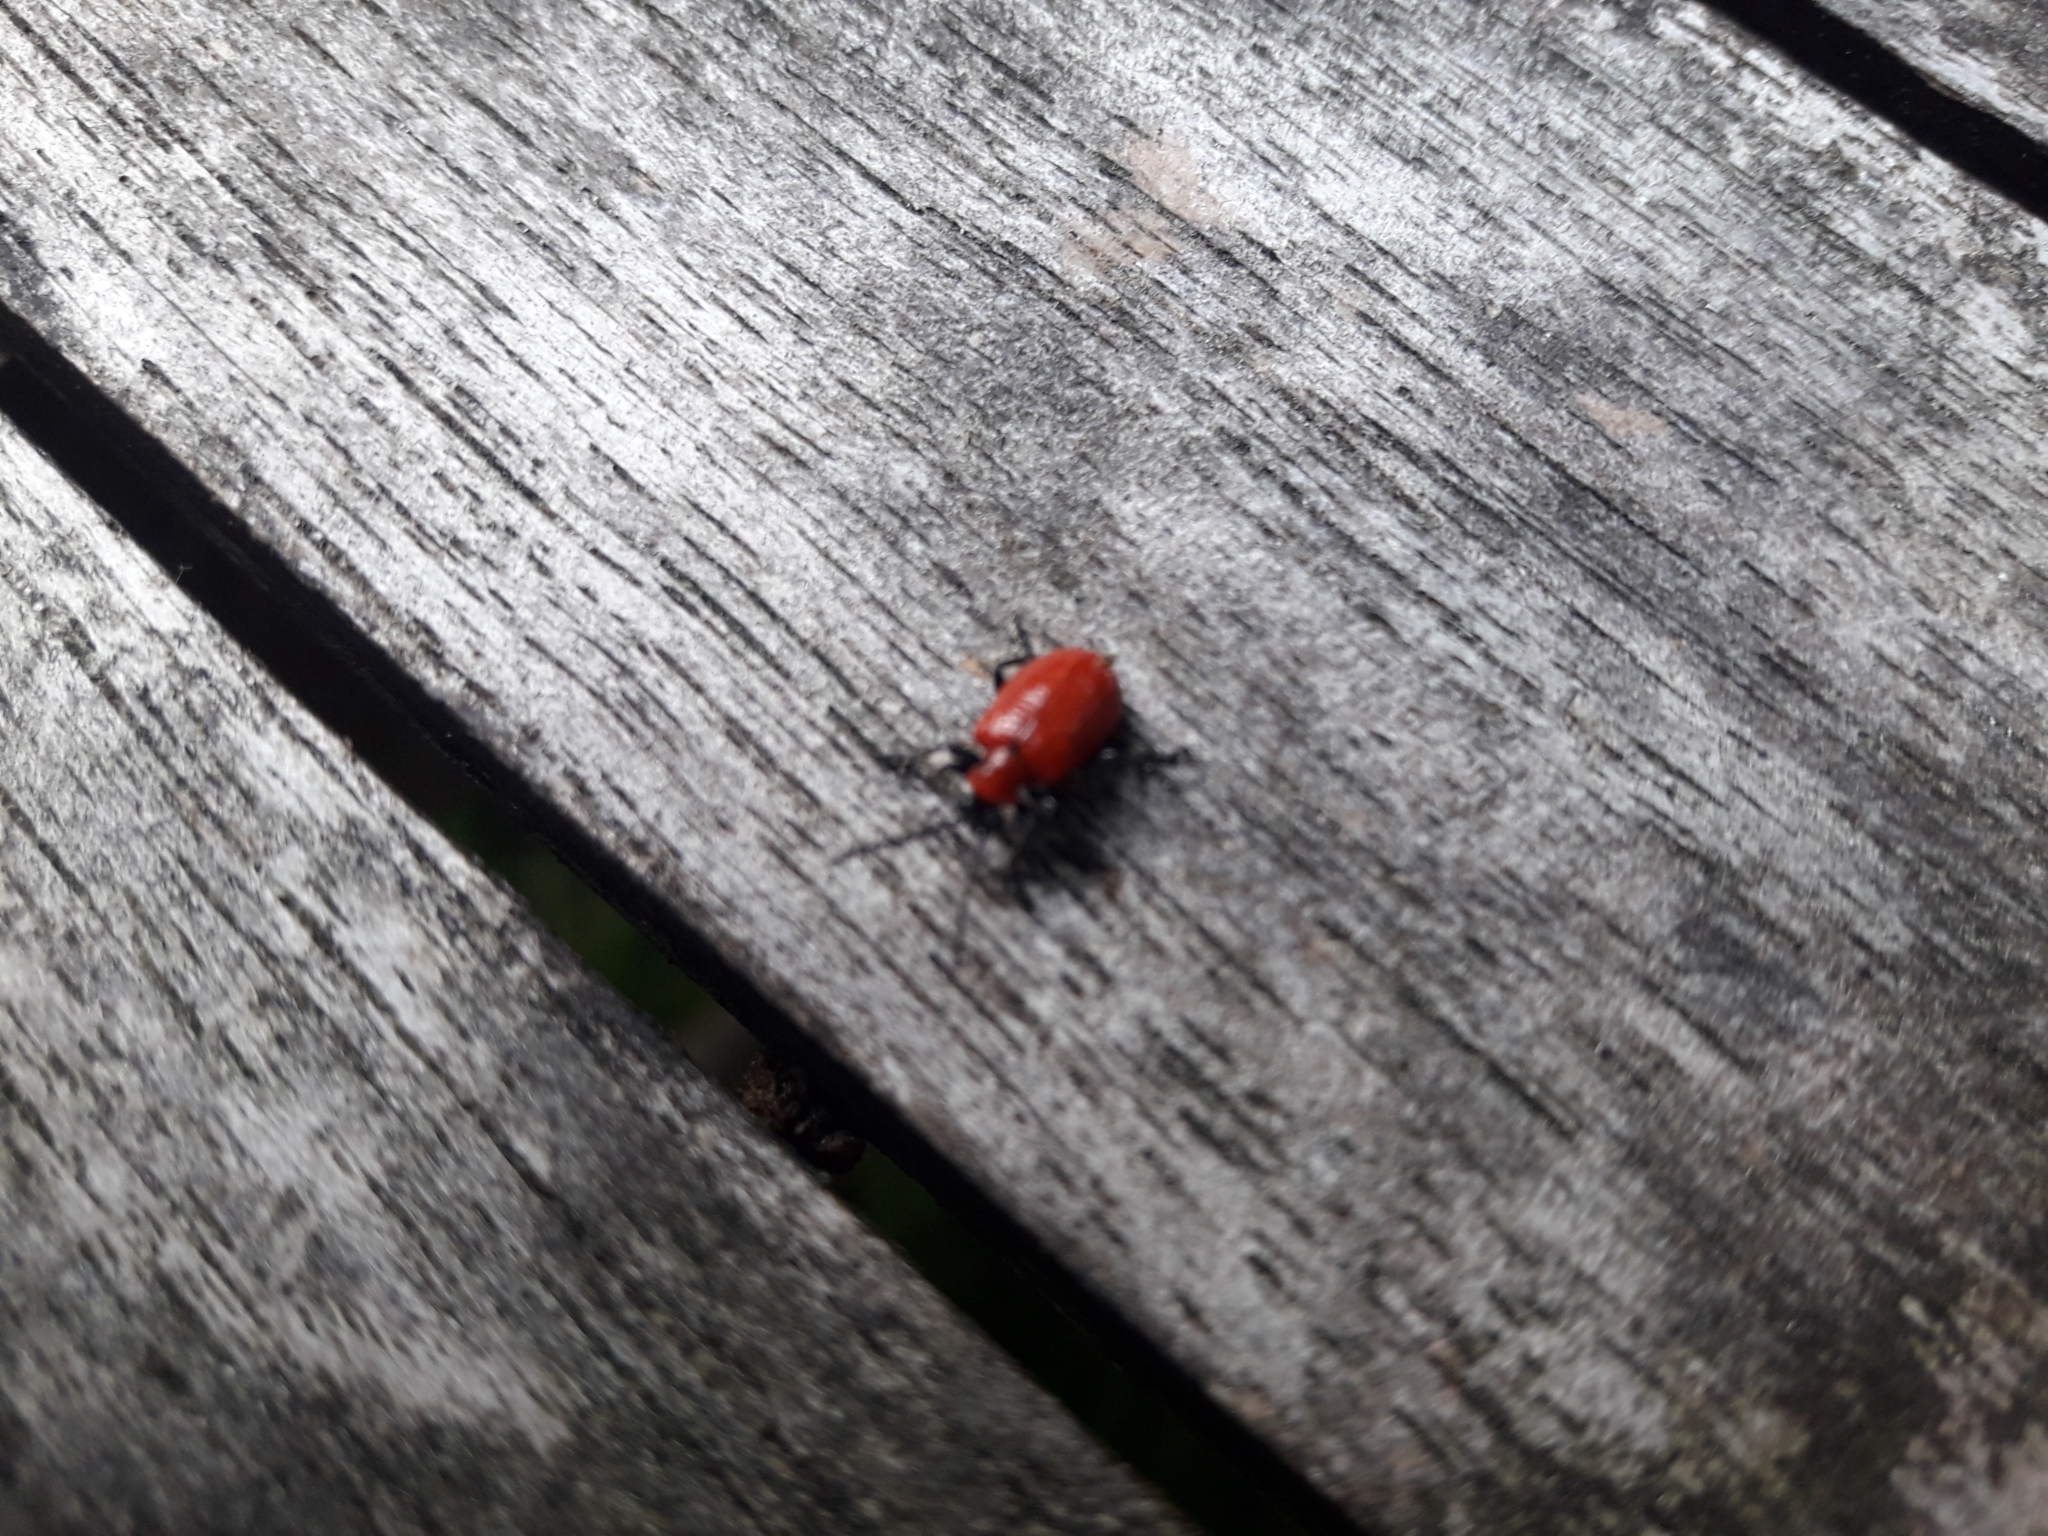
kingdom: Animalia
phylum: Arthropoda
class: Insecta
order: Coleoptera
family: Chrysomelidae
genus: Lilioceris
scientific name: Lilioceris lilii
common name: Lily beetle
